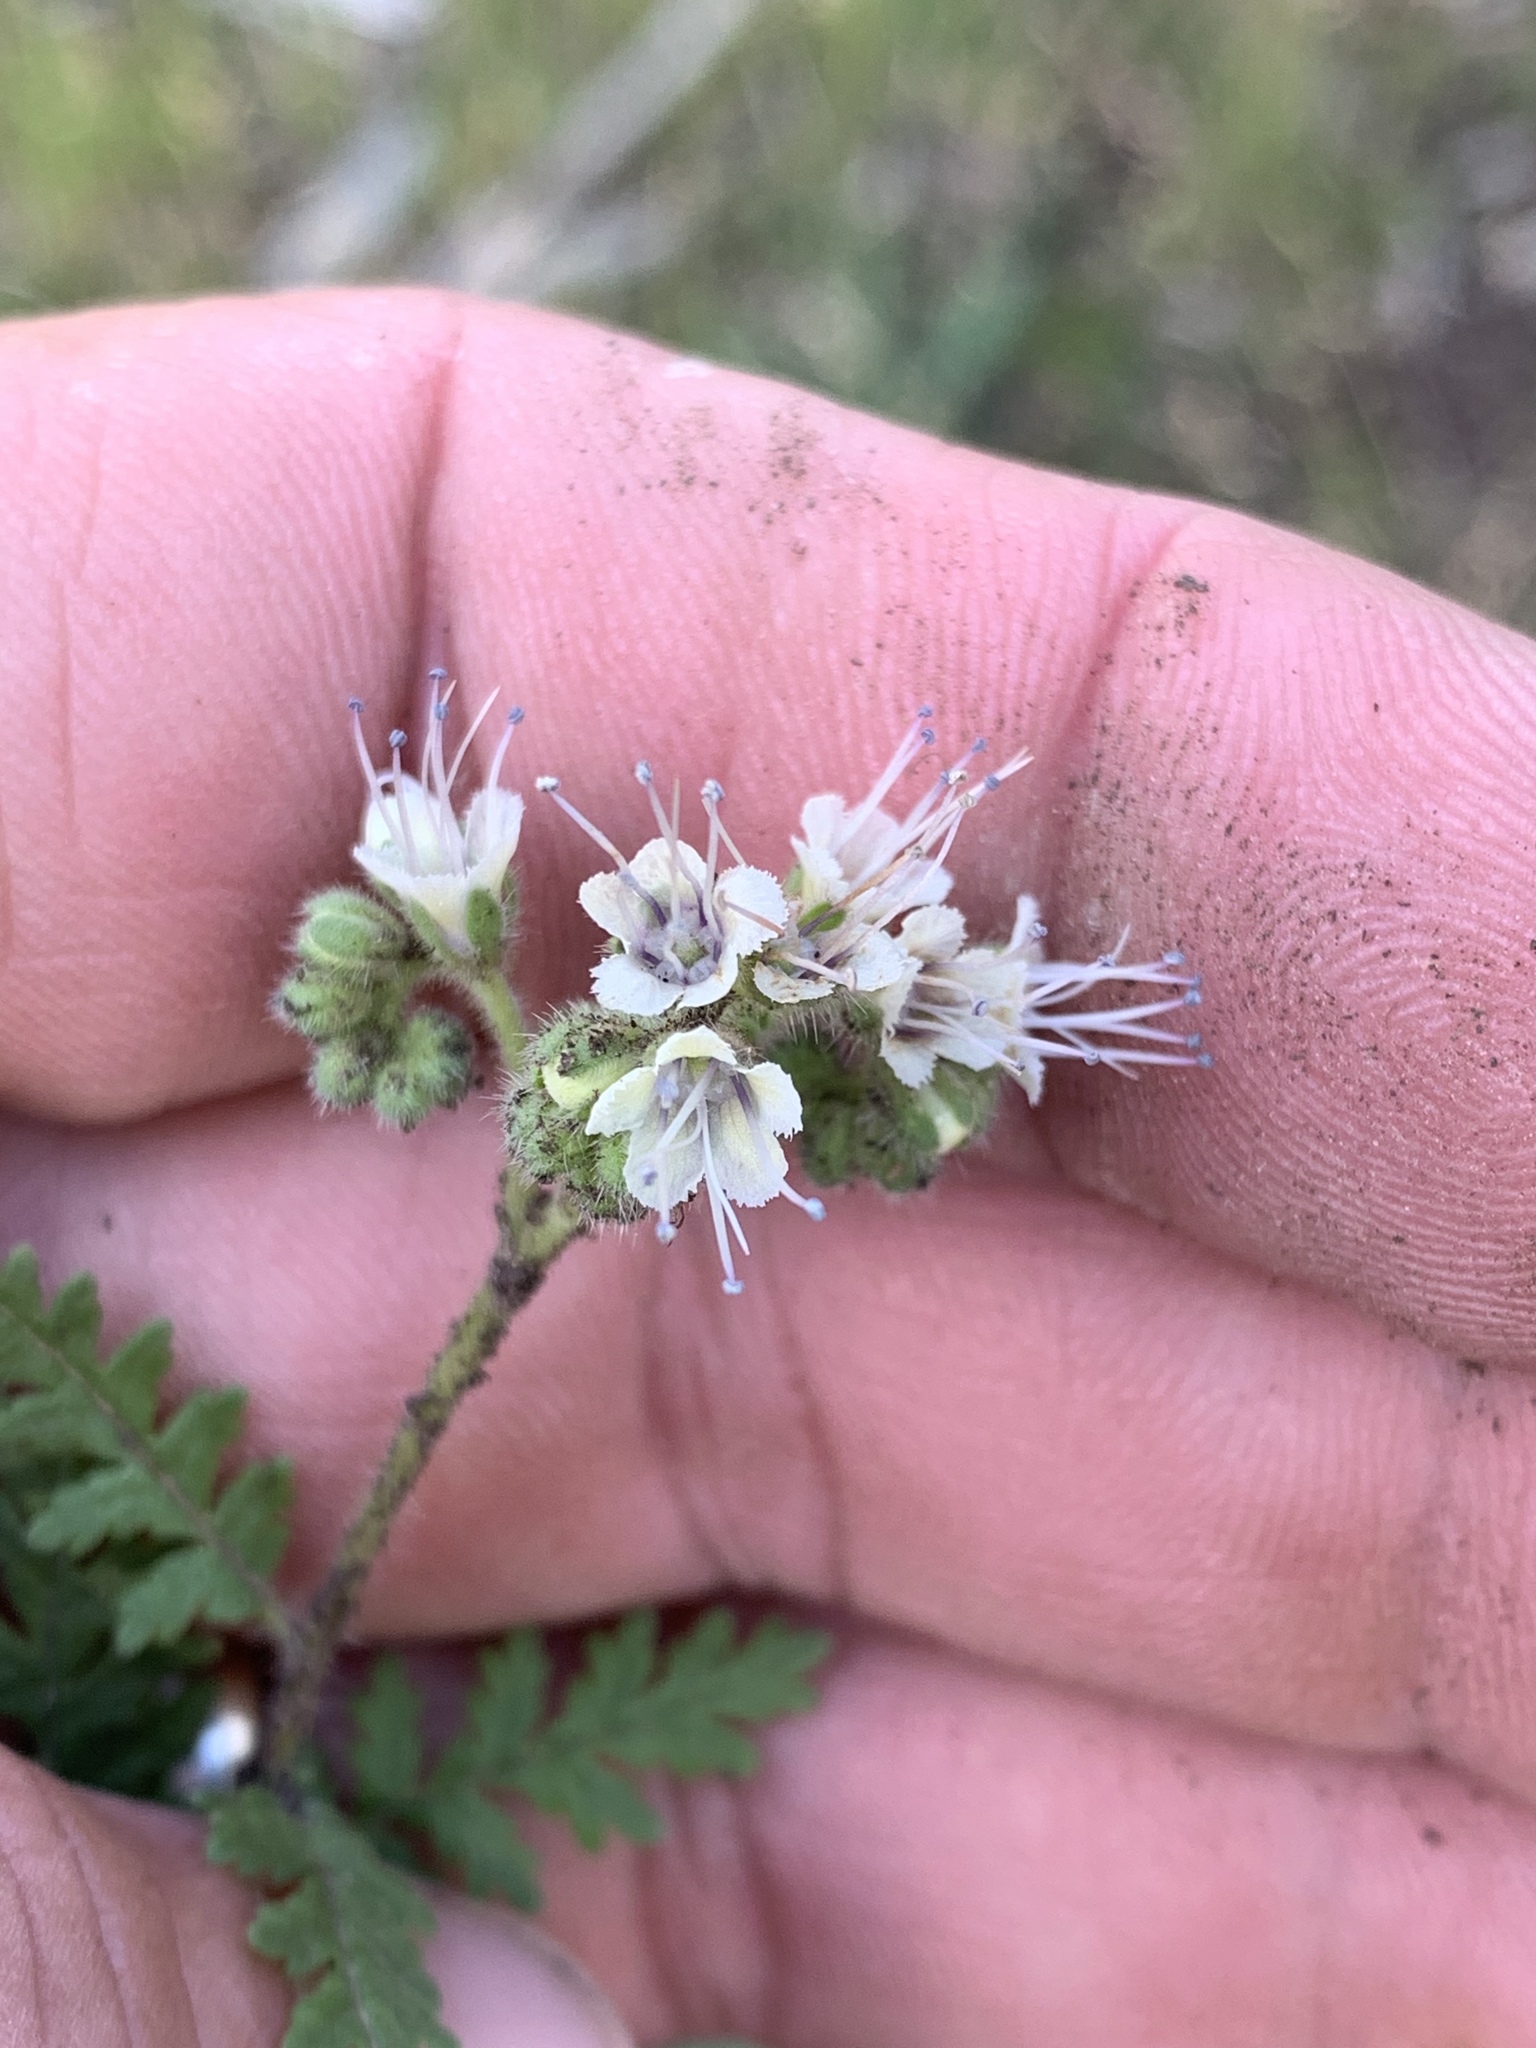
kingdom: Plantae
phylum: Tracheophyta
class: Magnoliopsida
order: Boraginales
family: Hydrophyllaceae
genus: Phacelia
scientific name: Phacelia alba
